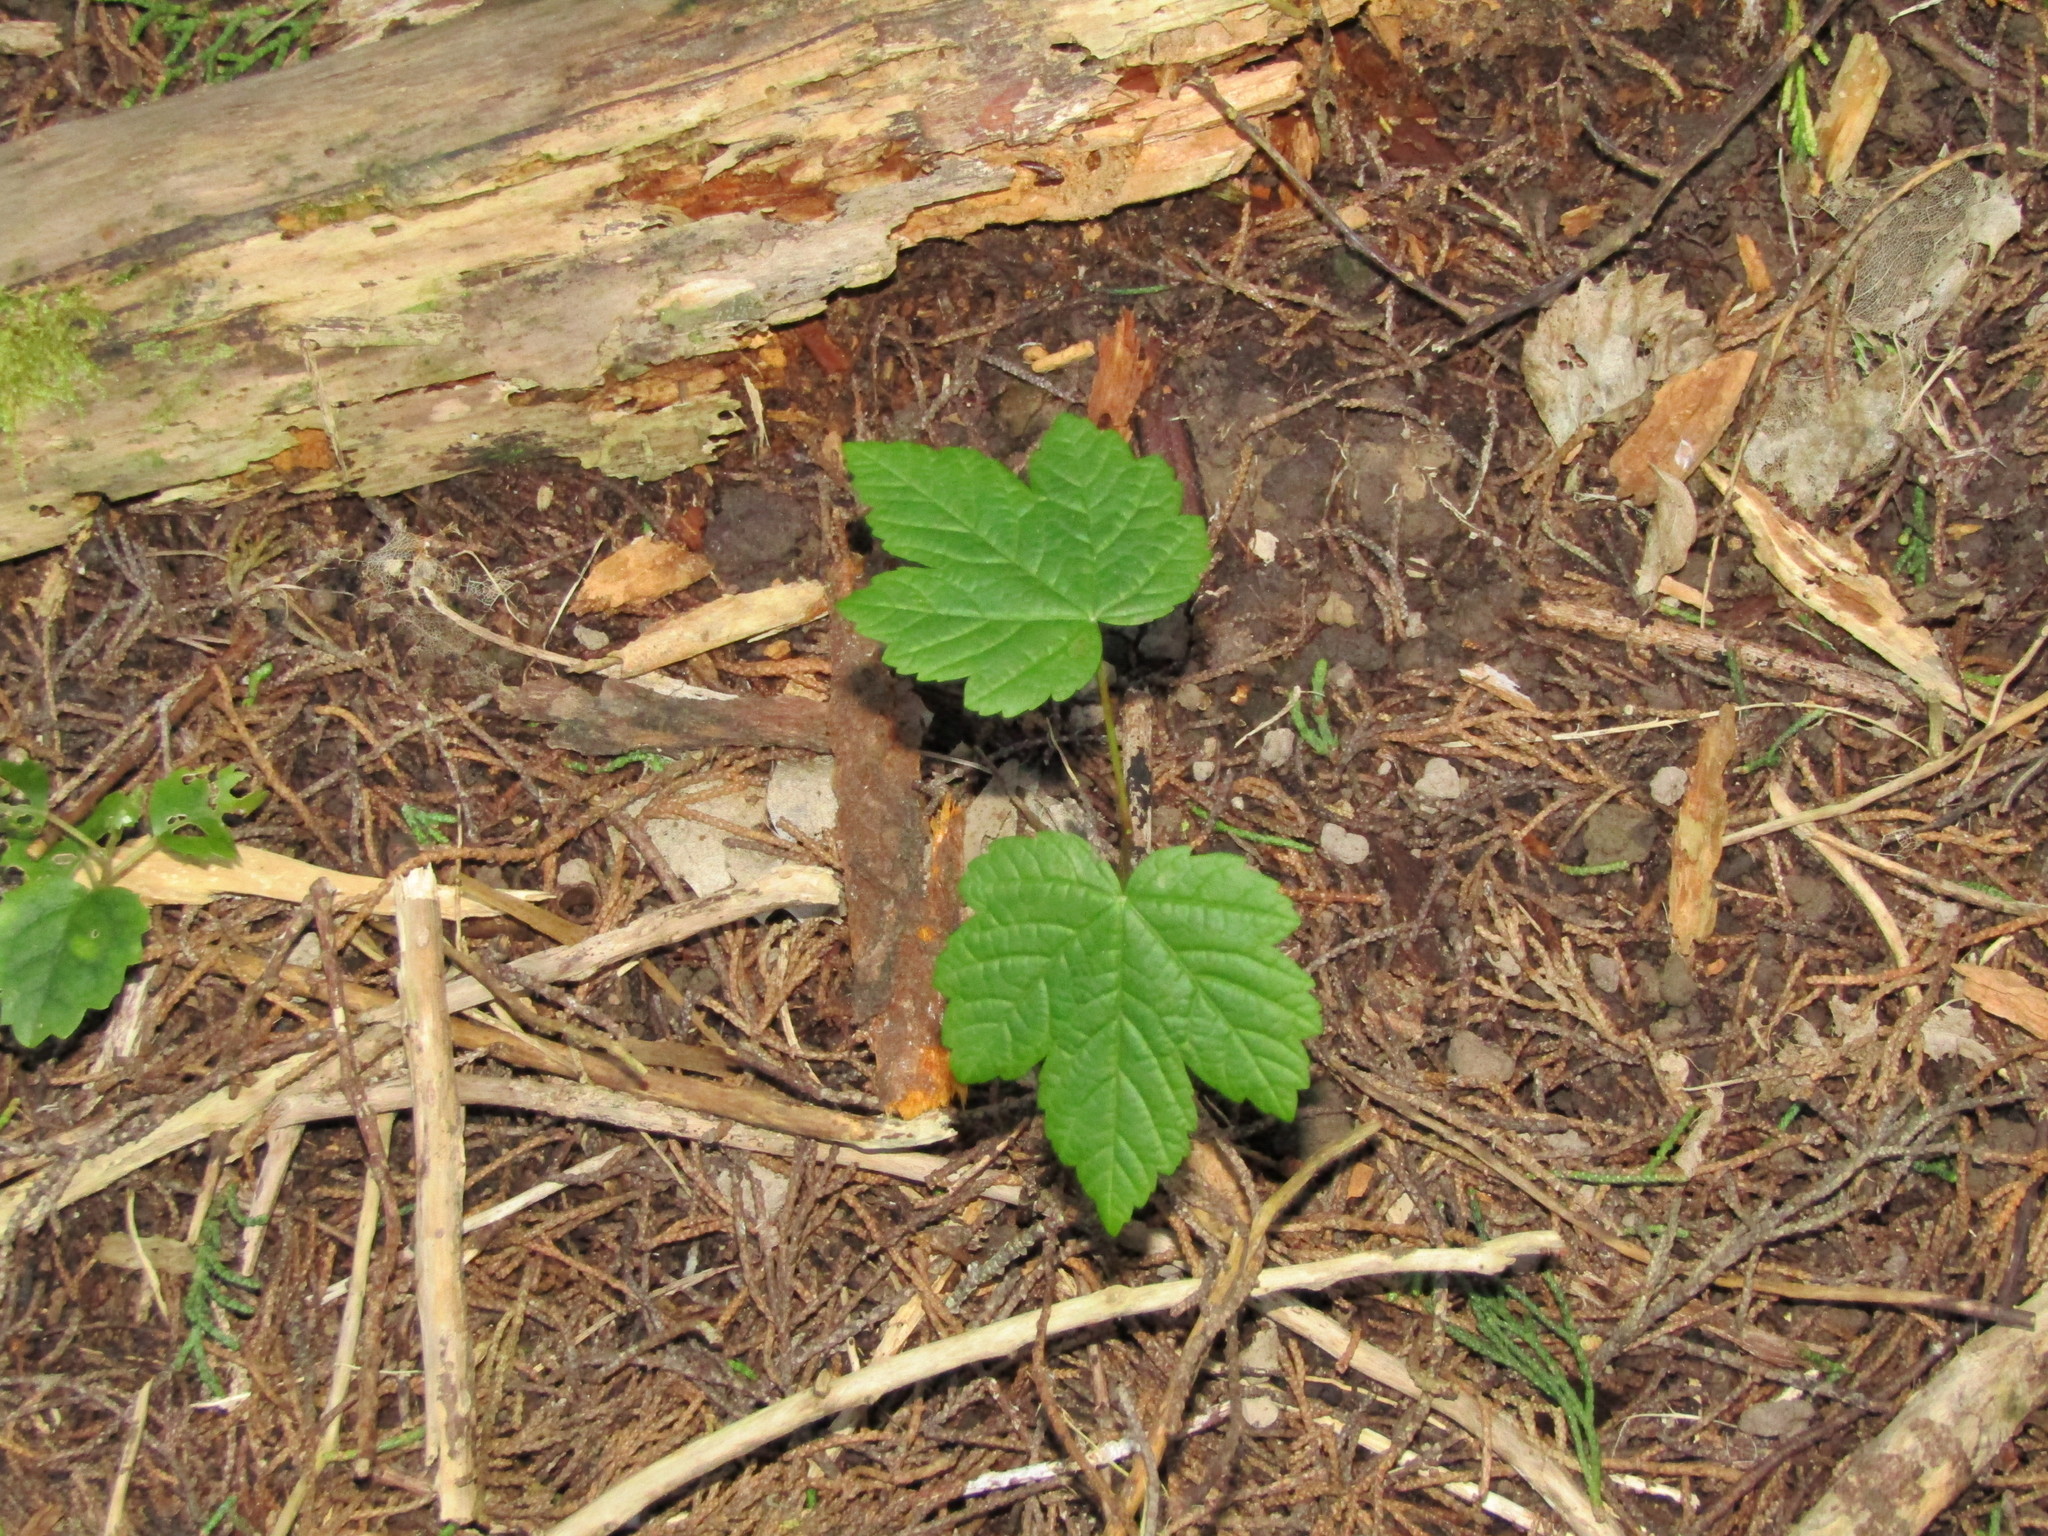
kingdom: Plantae
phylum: Tracheophyta
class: Magnoliopsida
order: Sapindales
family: Sapindaceae
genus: Acer
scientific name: Acer pseudoplatanus
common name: Sycamore
